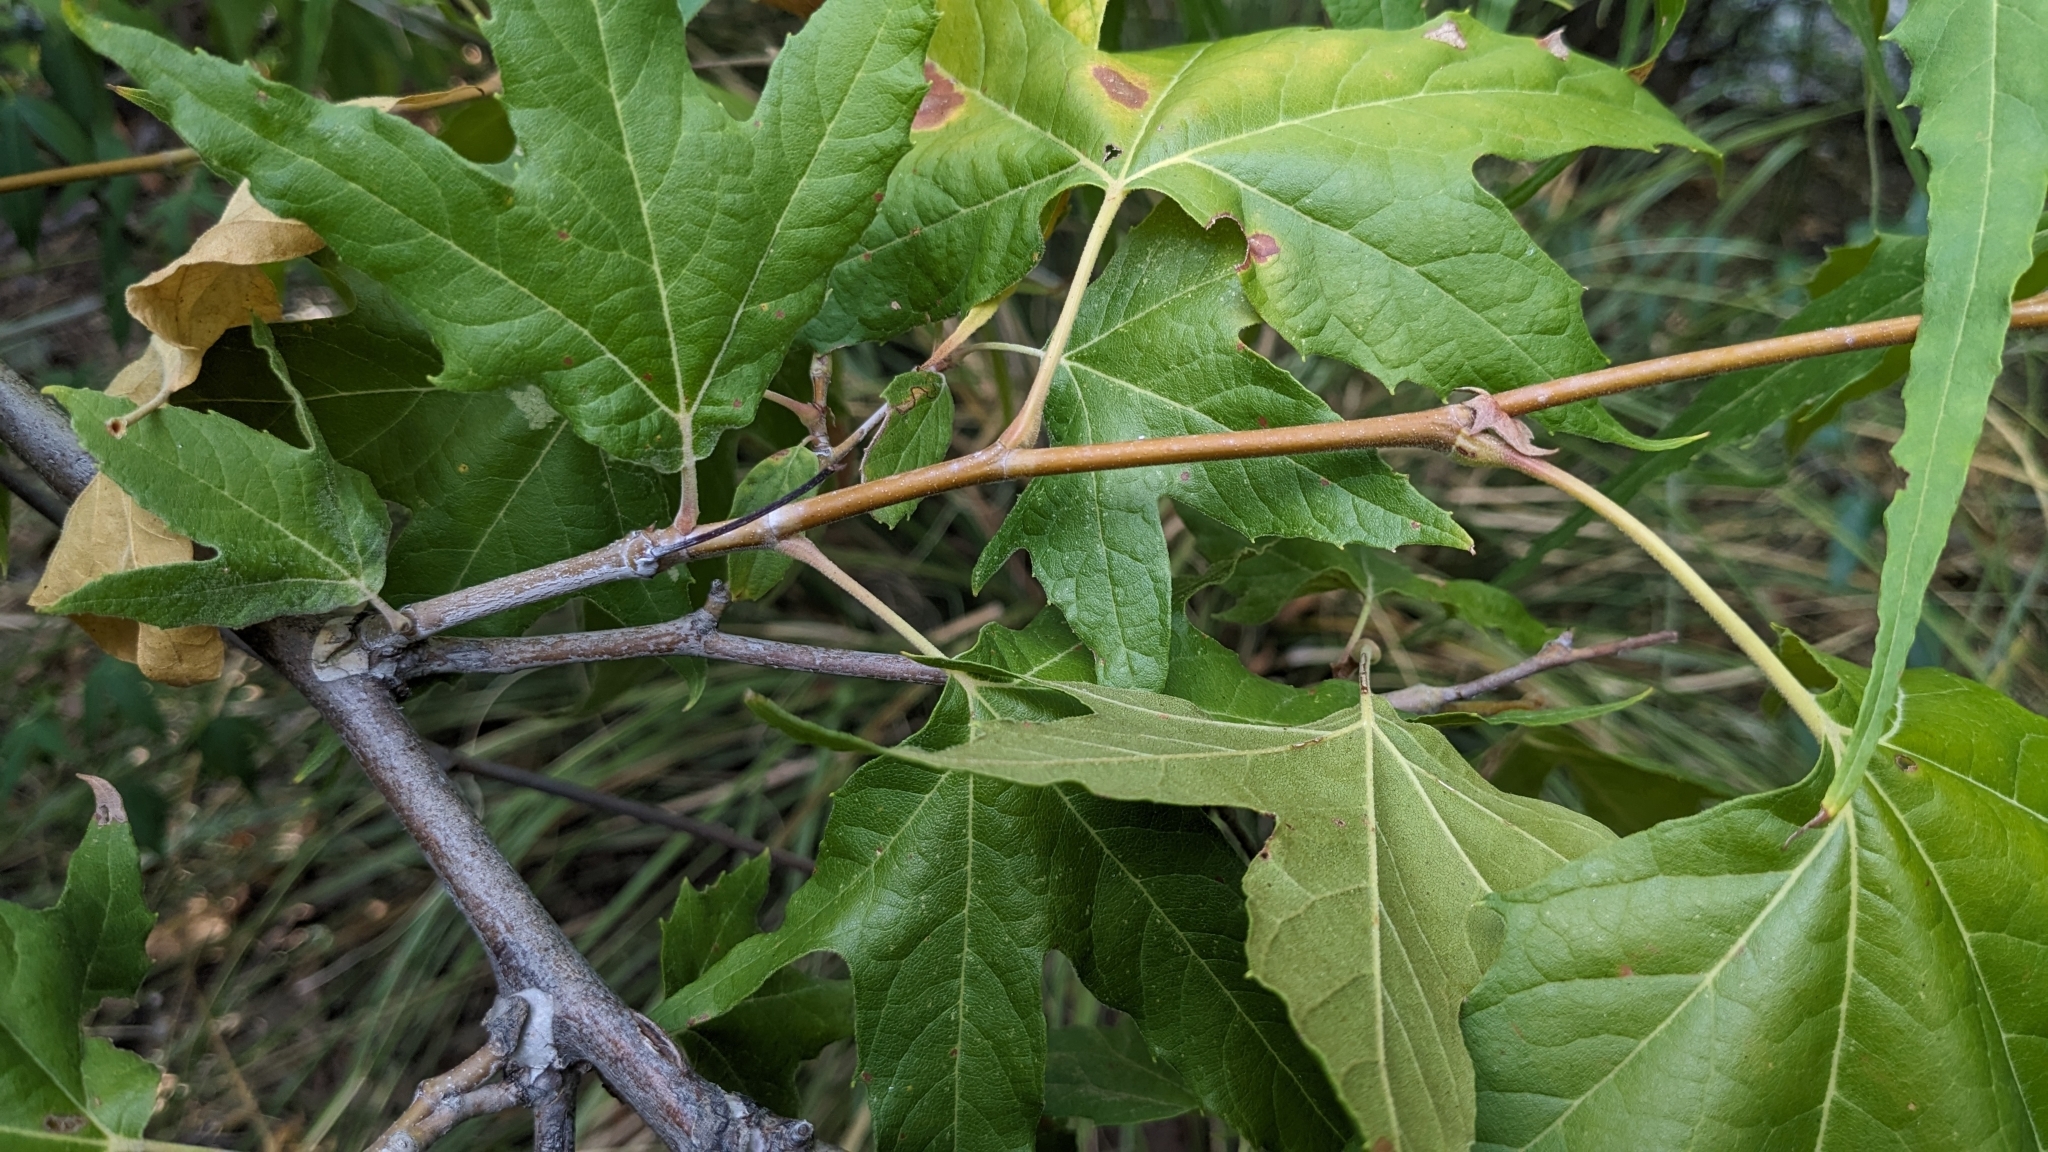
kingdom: Plantae
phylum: Tracheophyta
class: Magnoliopsida
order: Proteales
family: Platanaceae
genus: Platanus
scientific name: Platanus wrightii
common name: Arizona sycamore
